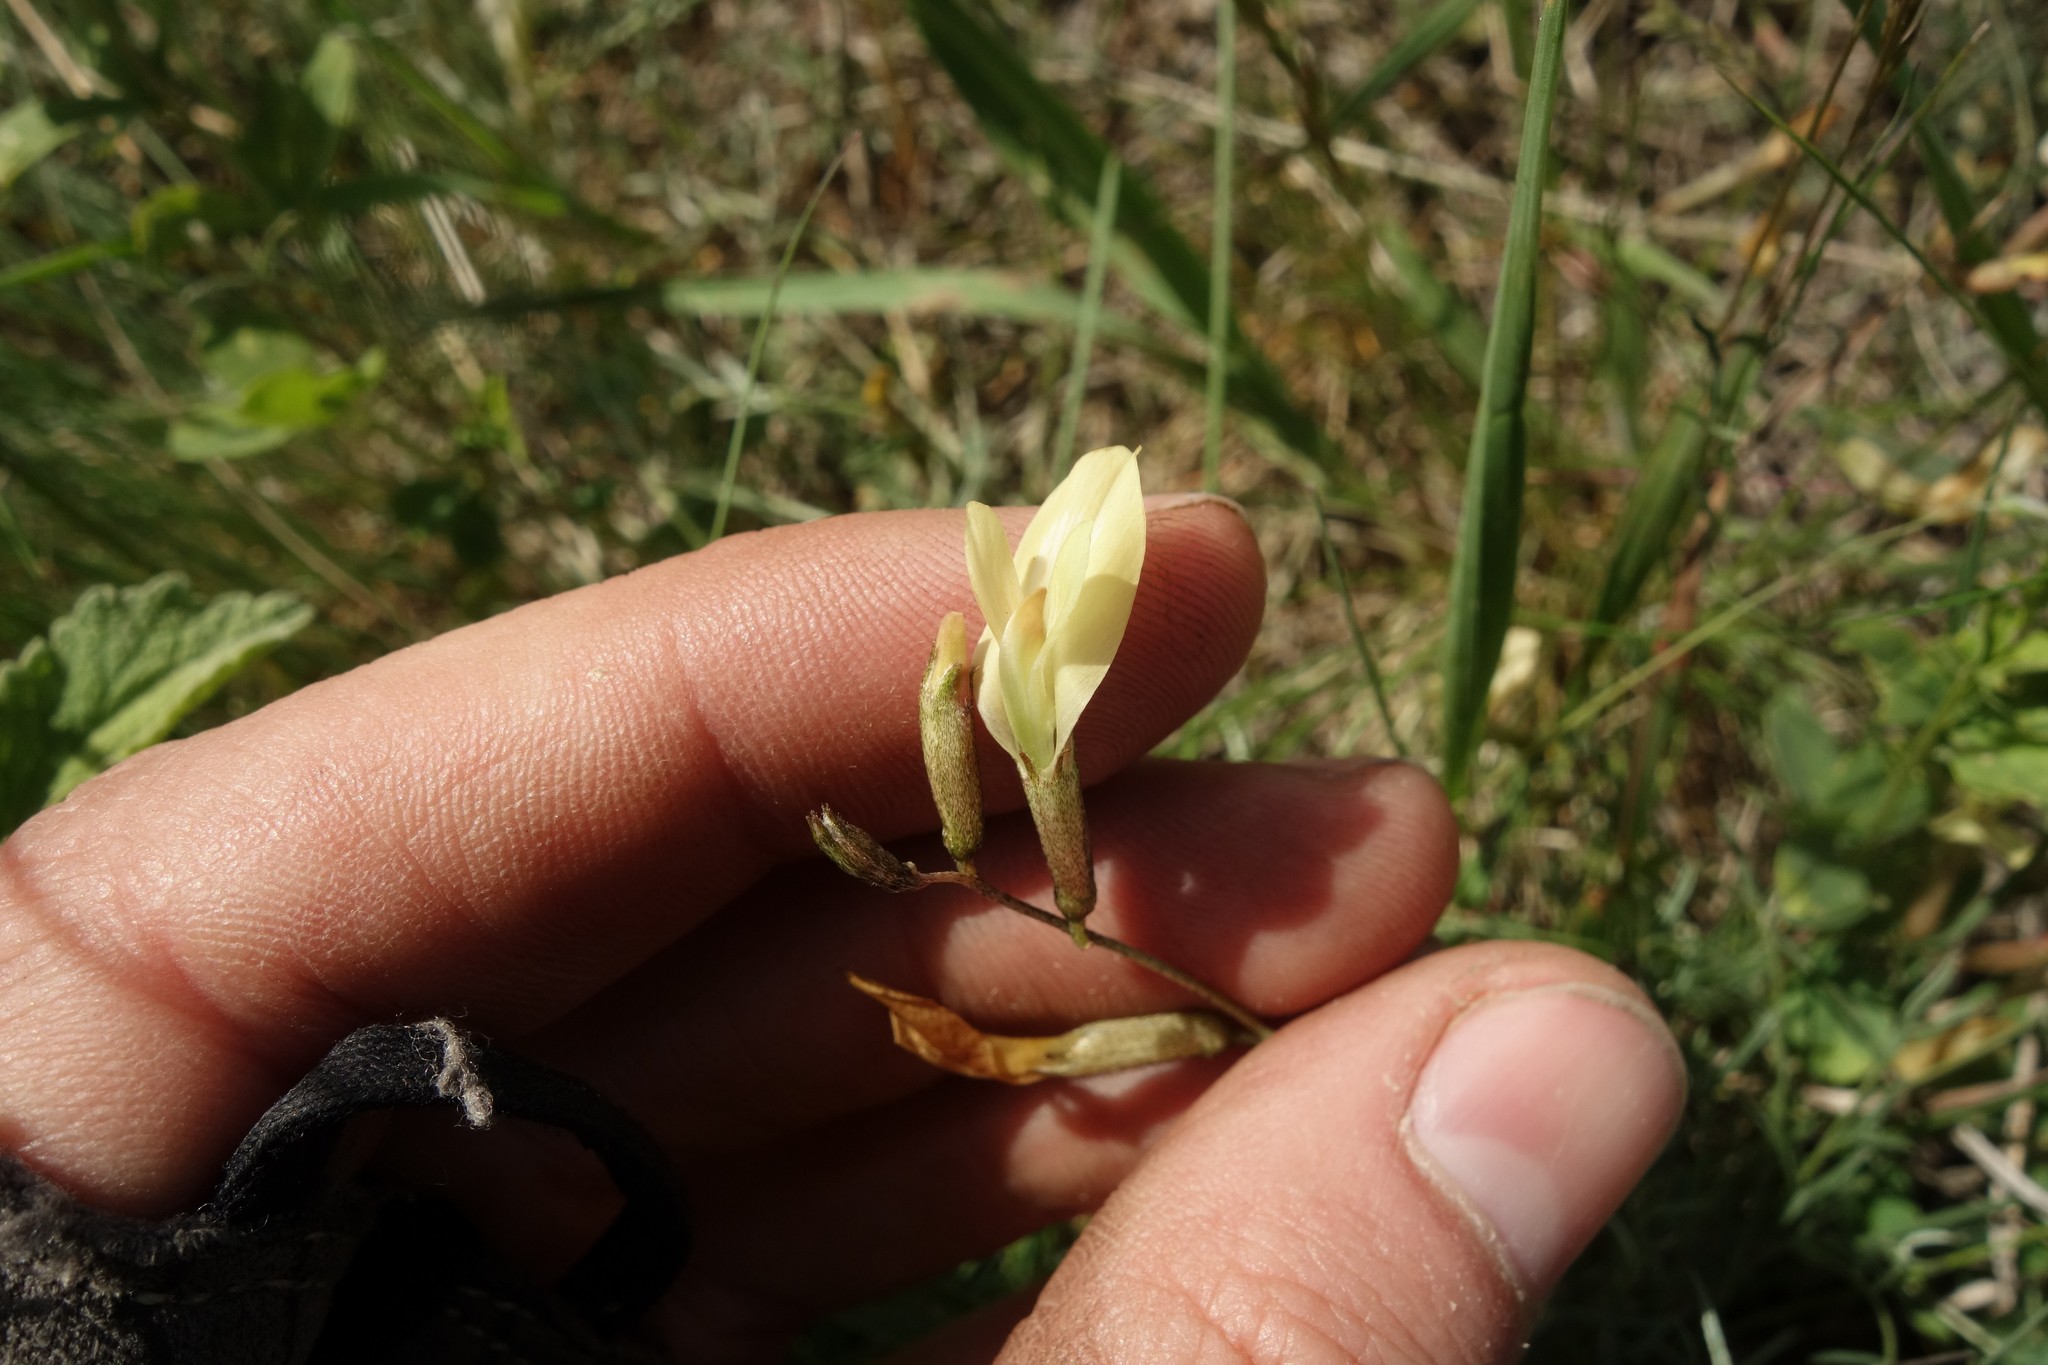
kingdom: Plantae
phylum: Tracheophyta
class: Magnoliopsida
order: Fabales
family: Fabaceae
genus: Astragalus
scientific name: Astragalus ucrainicus
